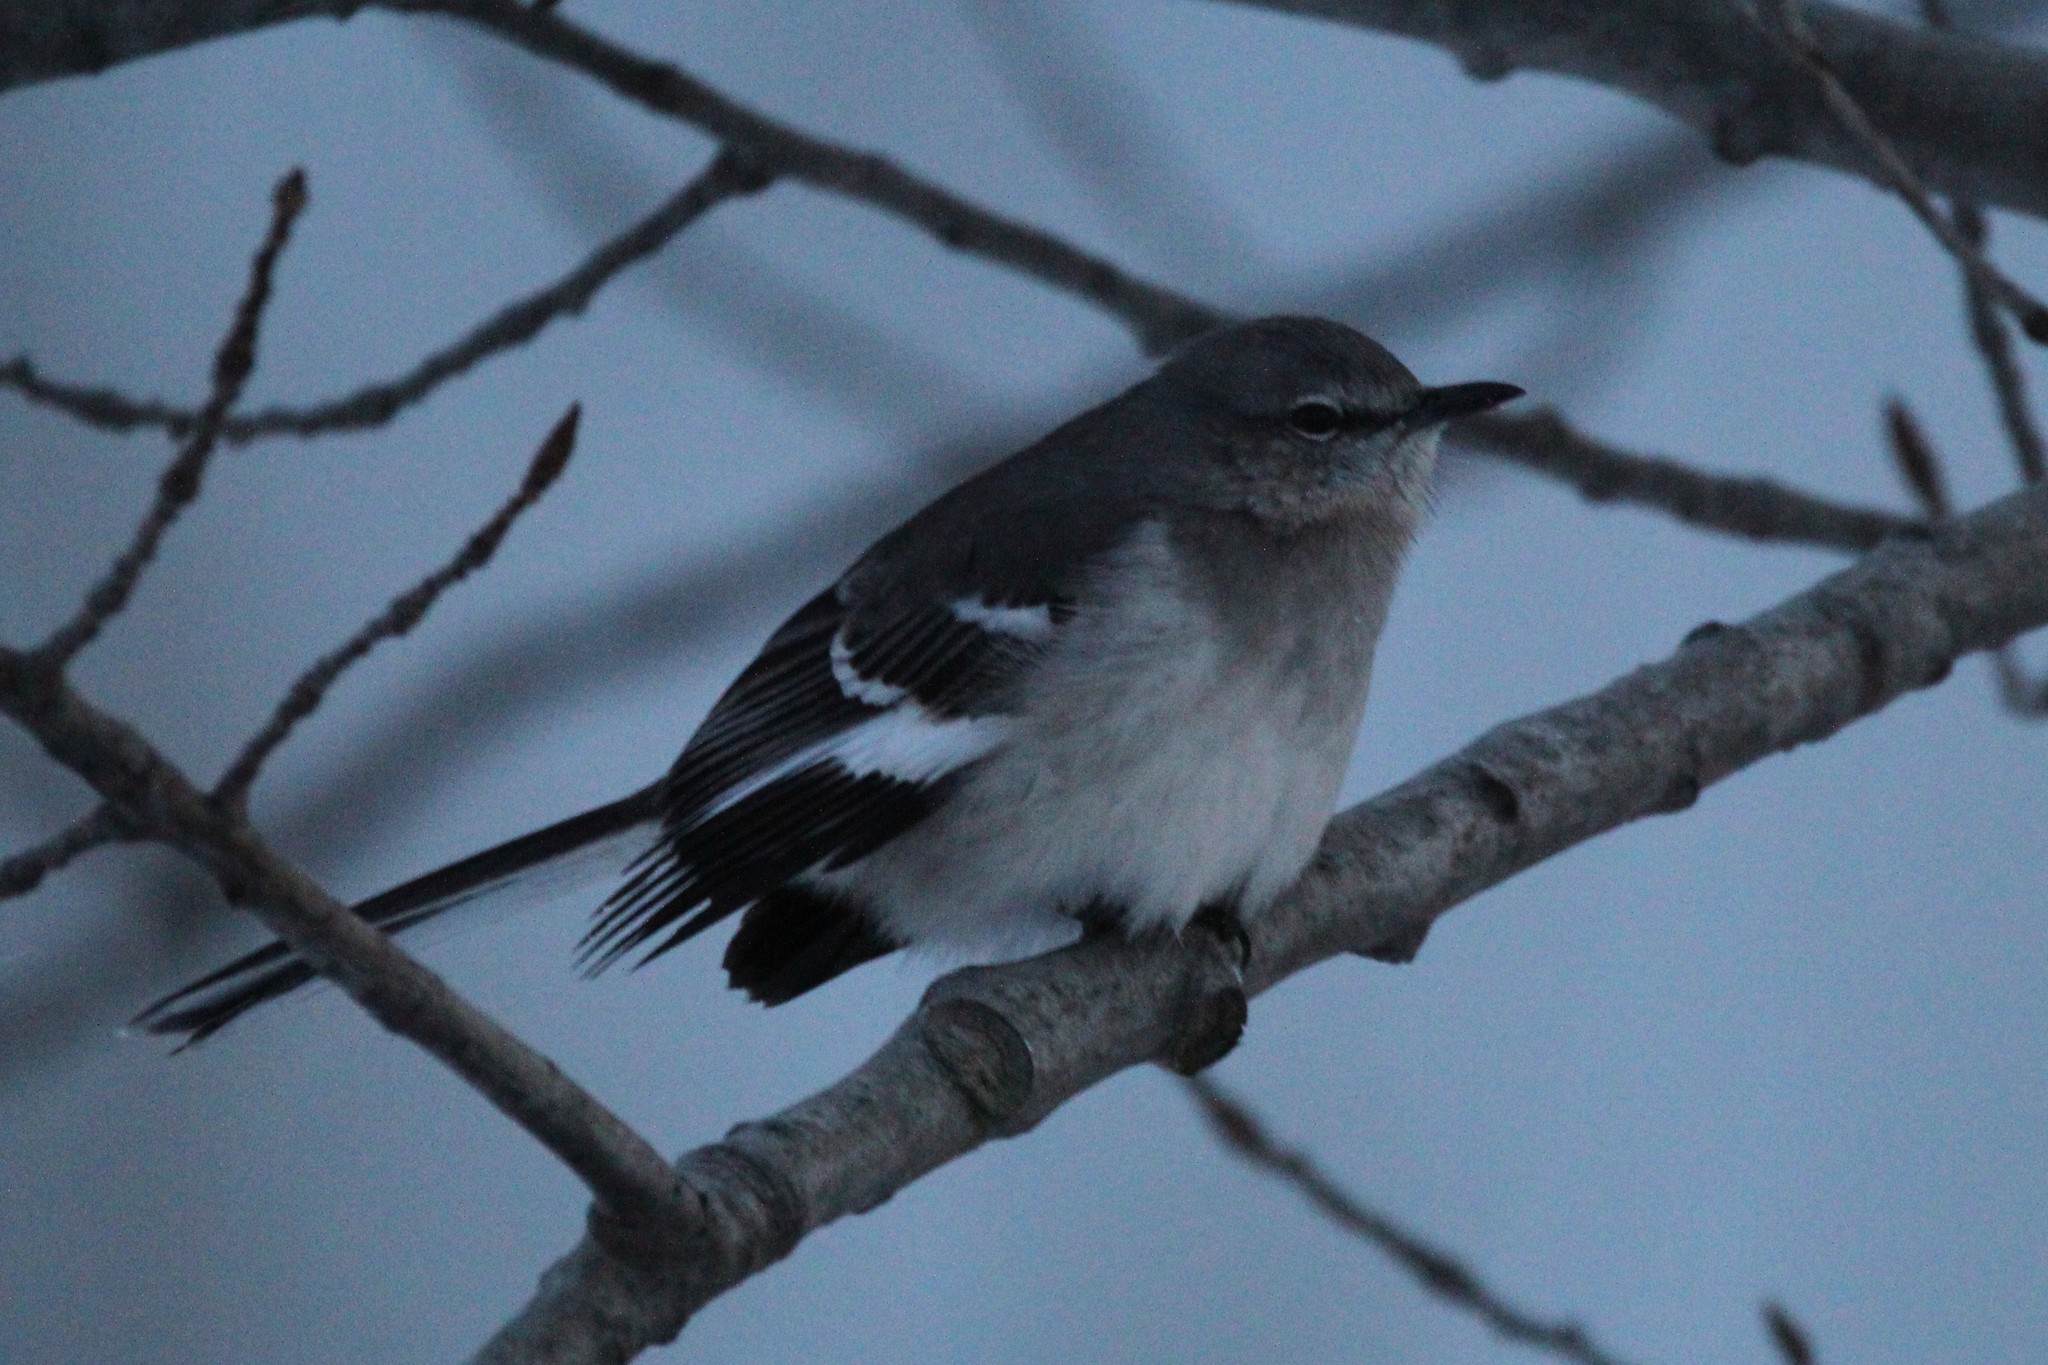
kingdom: Animalia
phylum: Chordata
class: Aves
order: Passeriformes
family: Mimidae
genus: Mimus
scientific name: Mimus polyglottos
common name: Northern mockingbird
